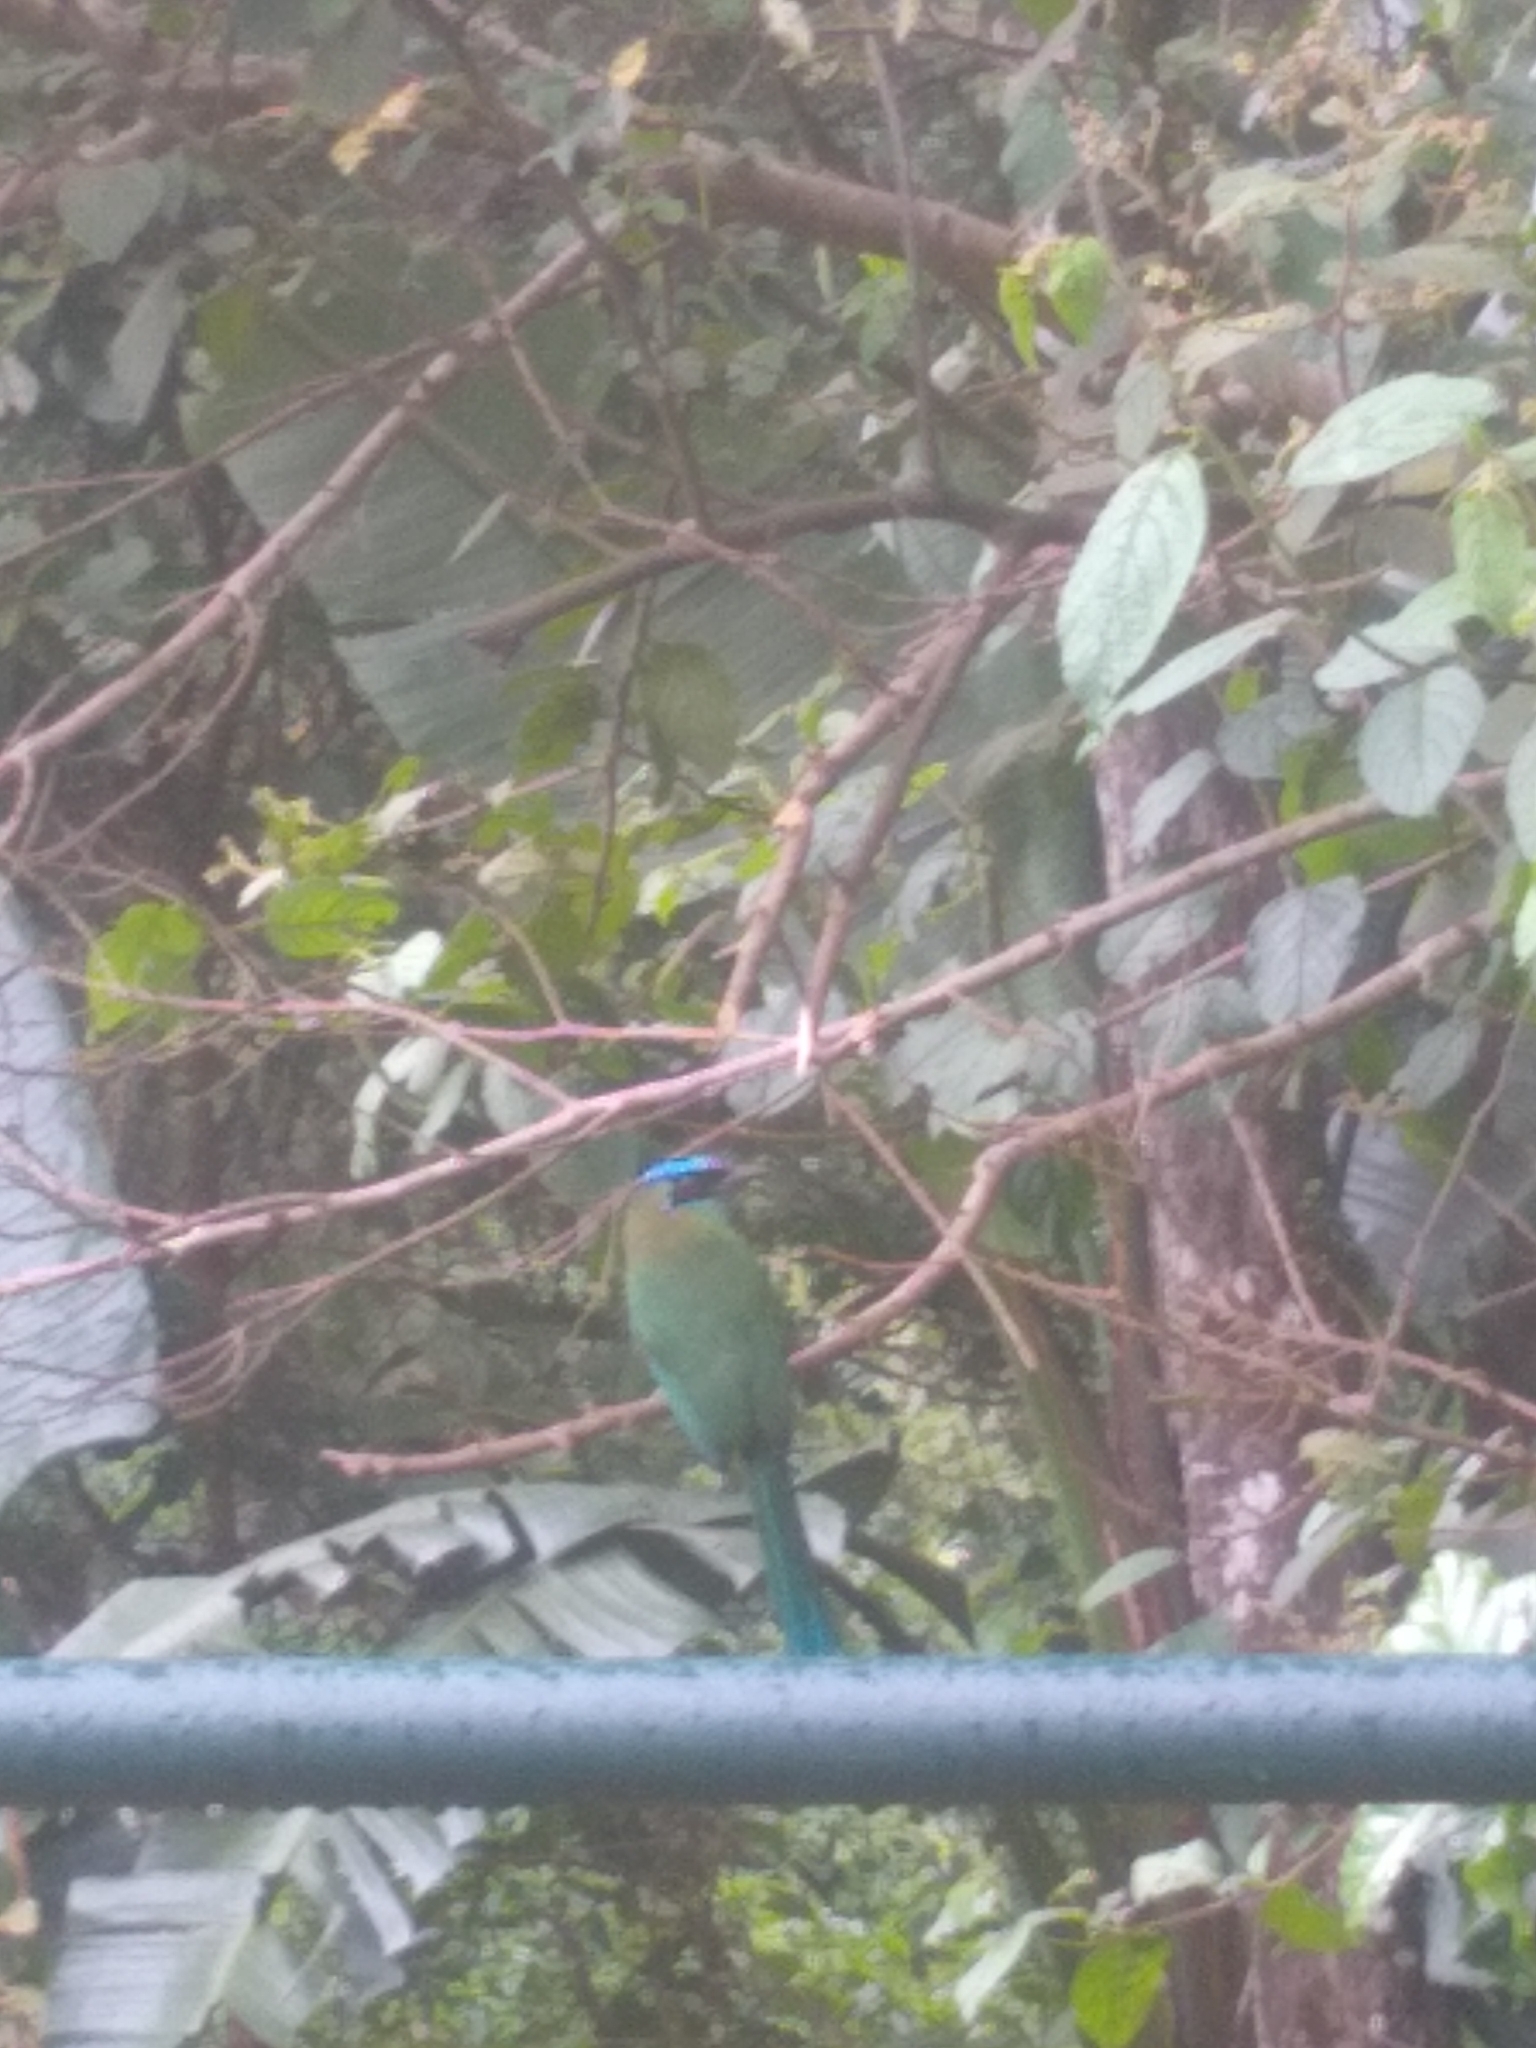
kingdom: Animalia
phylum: Chordata
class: Aves
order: Coraciiformes
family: Momotidae
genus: Momotus
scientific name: Momotus lessonii
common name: Lesson's motmot
